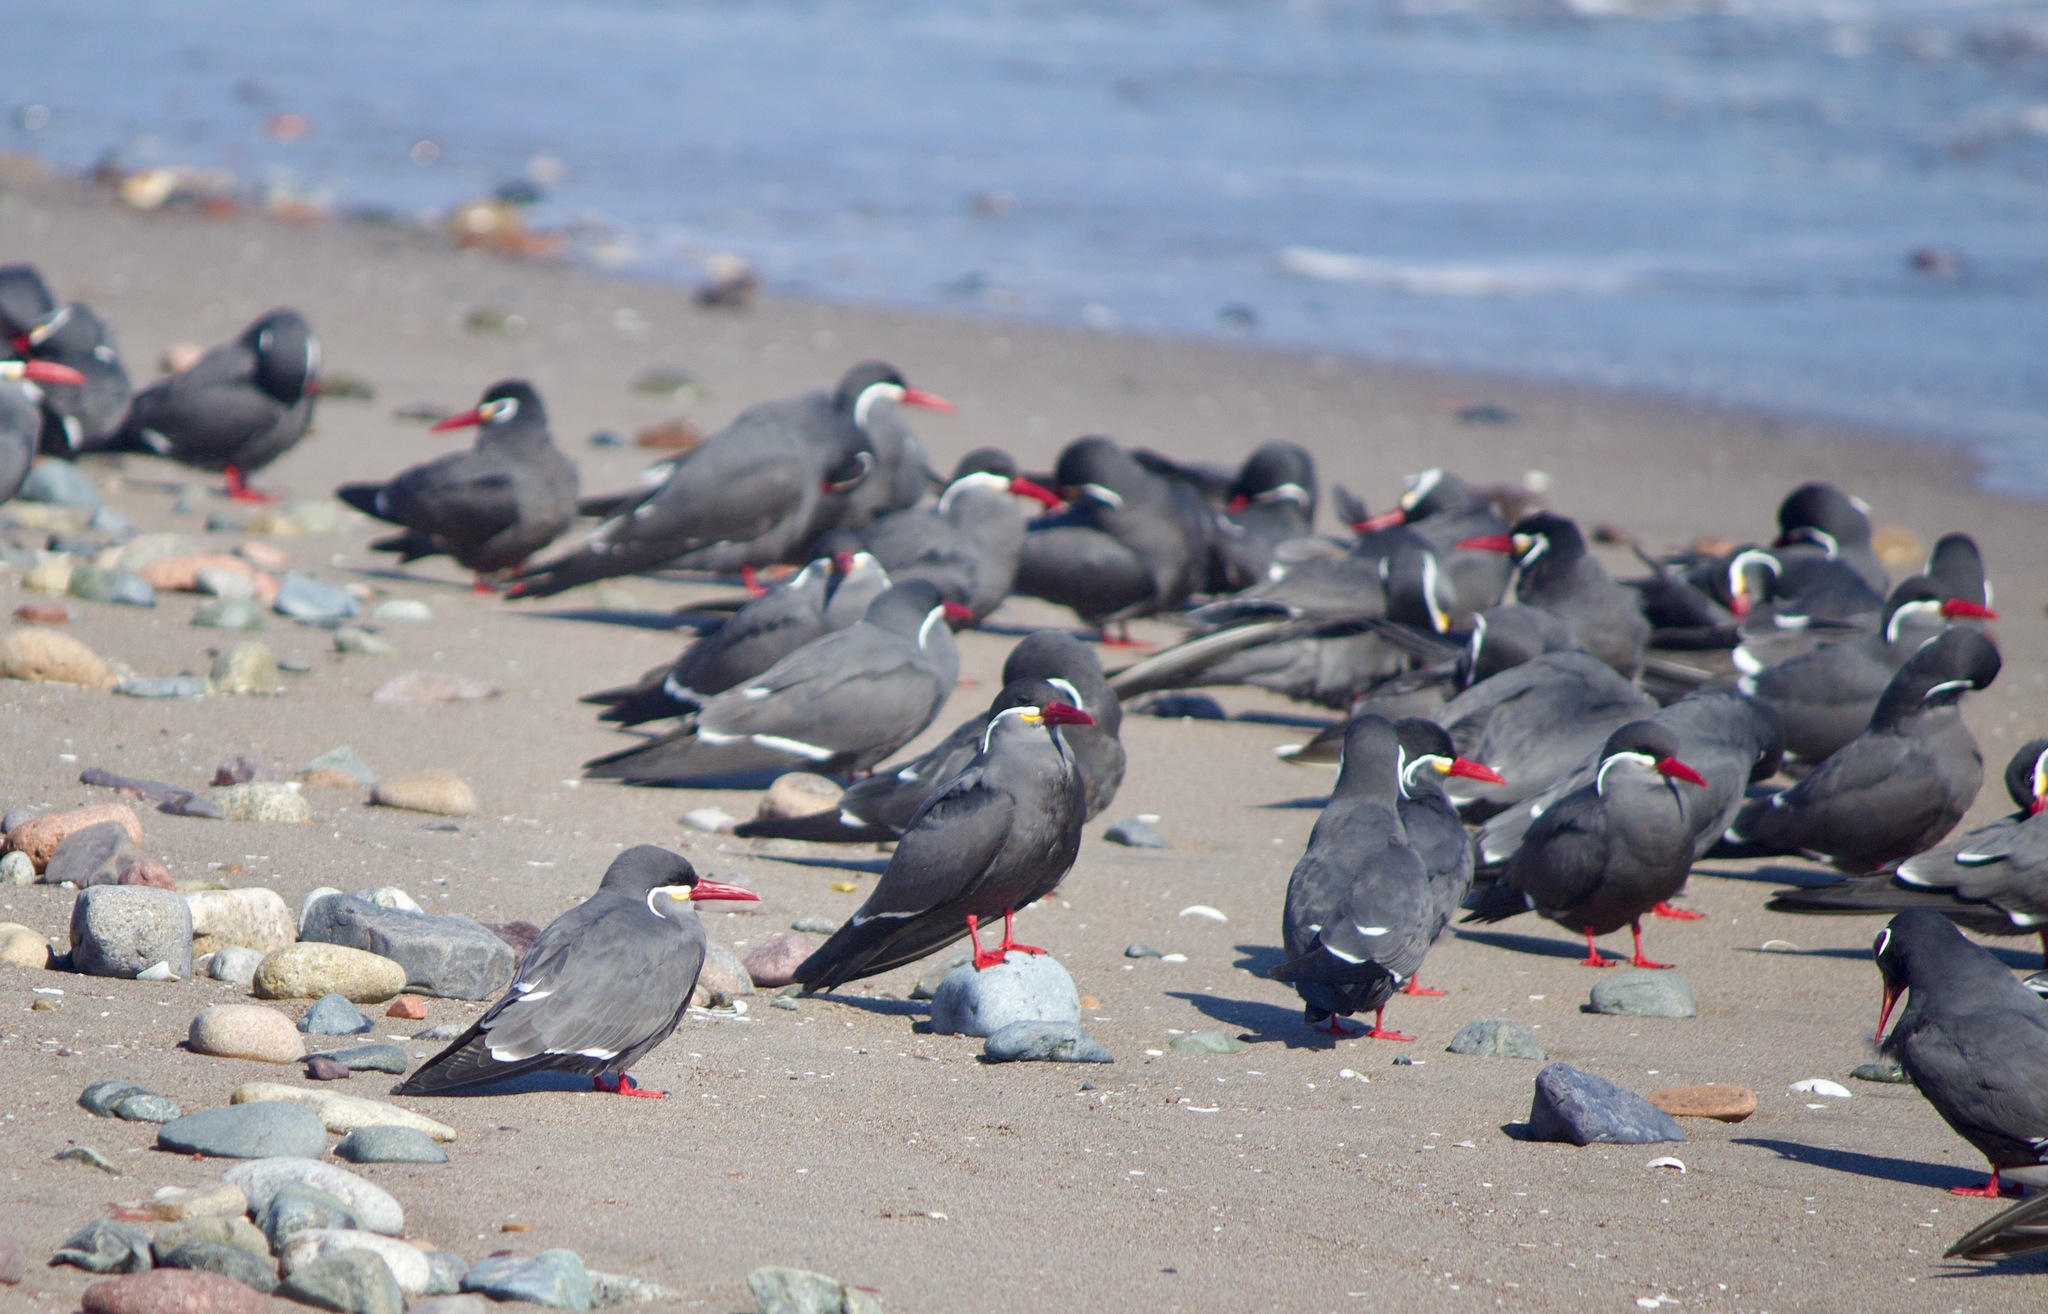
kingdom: Animalia
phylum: Chordata
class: Aves
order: Charadriiformes
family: Laridae
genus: Larosterna
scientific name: Larosterna inca
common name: Inca tern
